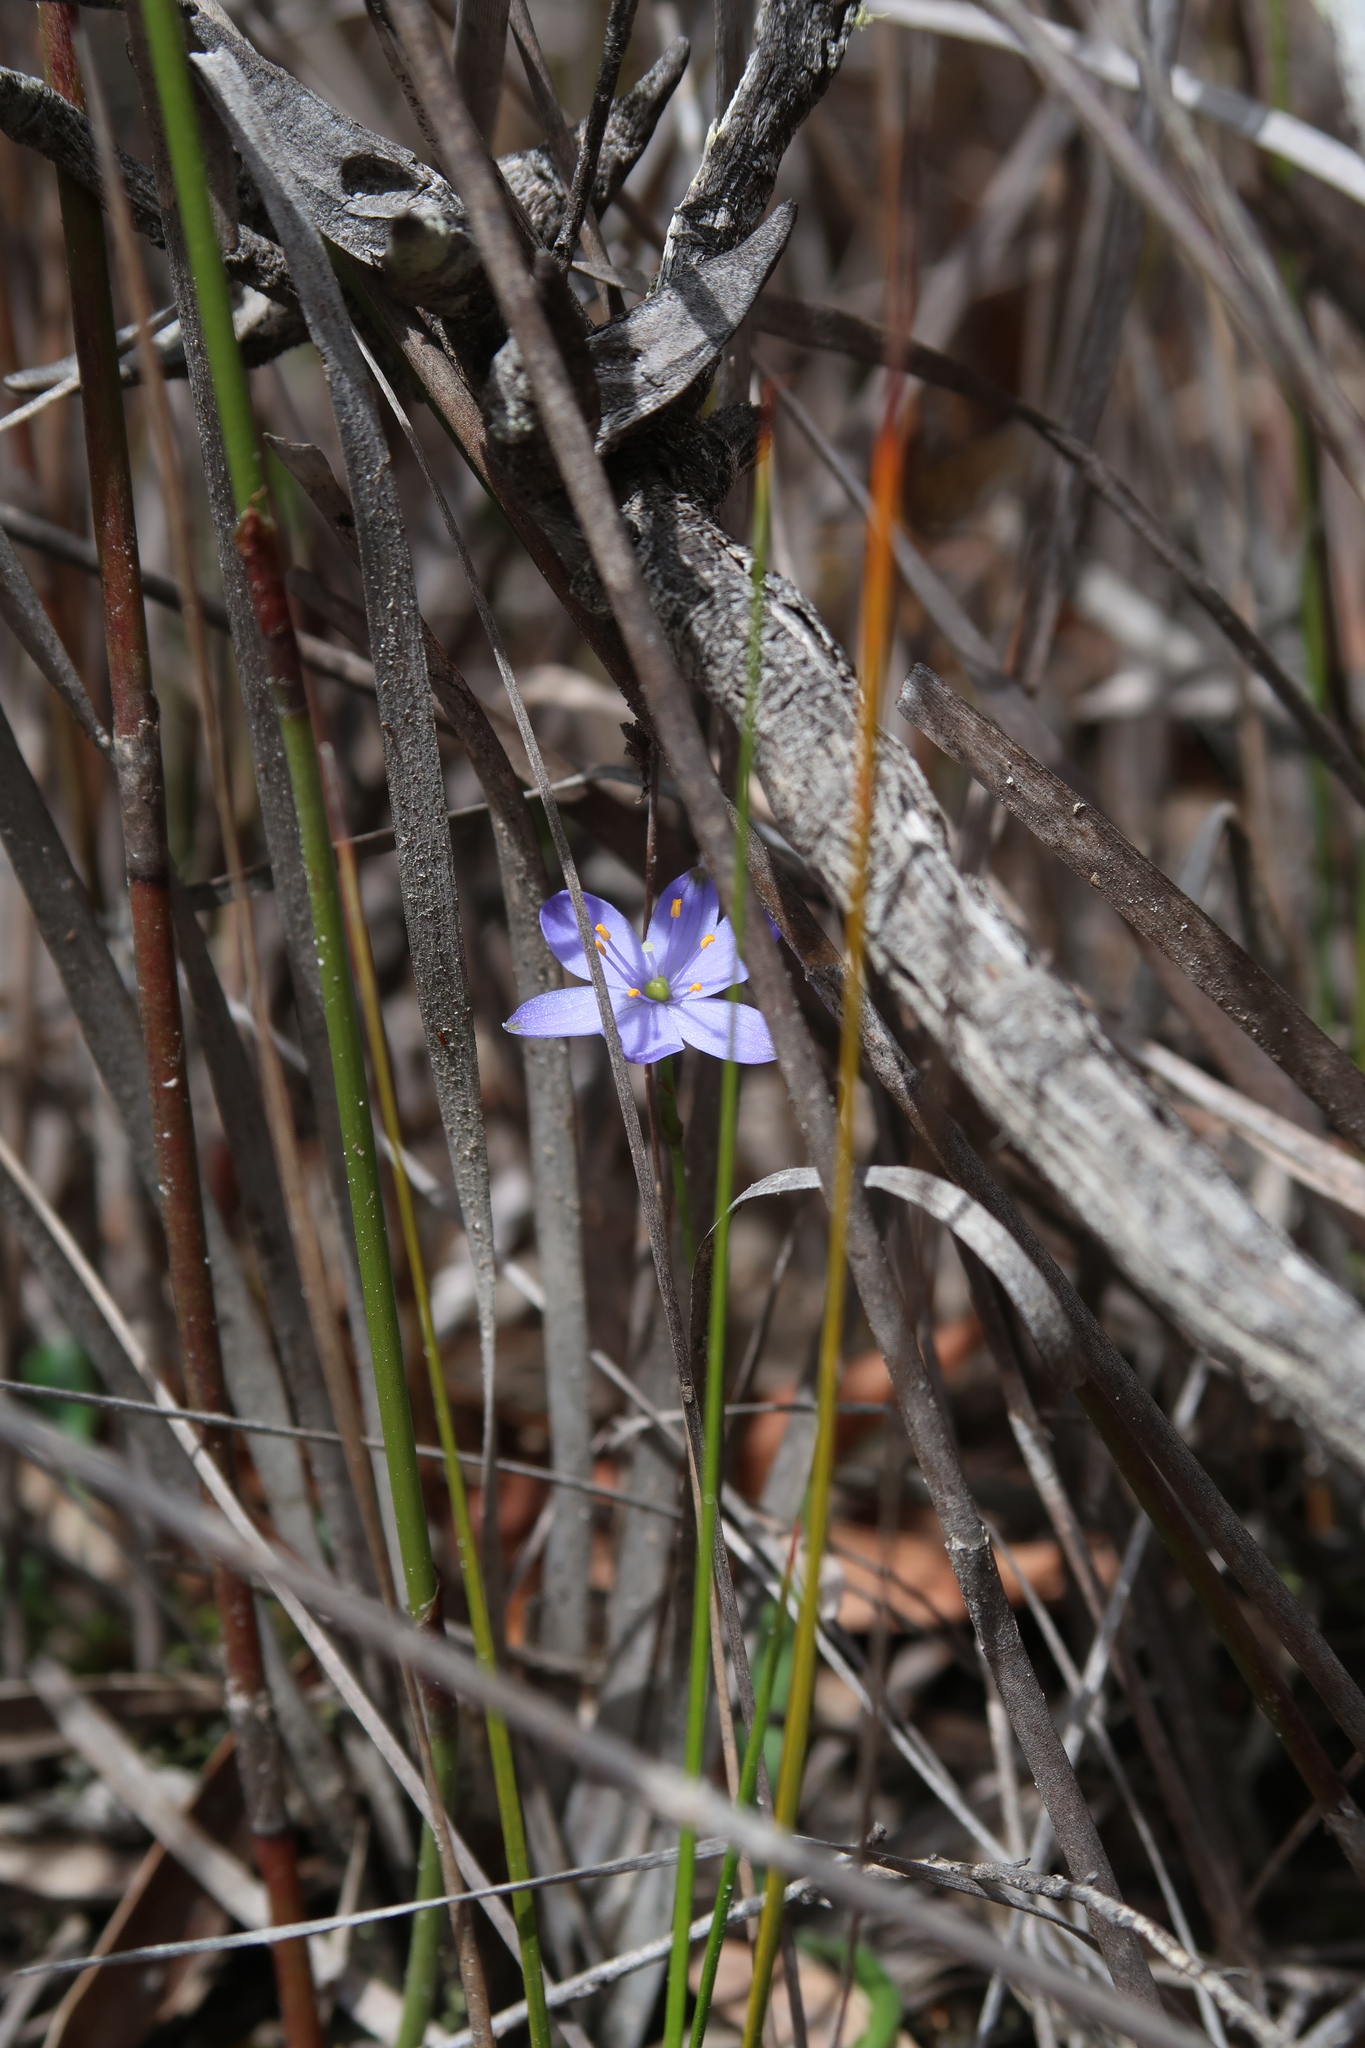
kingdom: Plantae
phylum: Tracheophyta
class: Liliopsida
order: Asparagales
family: Asphodelaceae
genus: Chamaescilla
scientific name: Chamaescilla corymbosa
